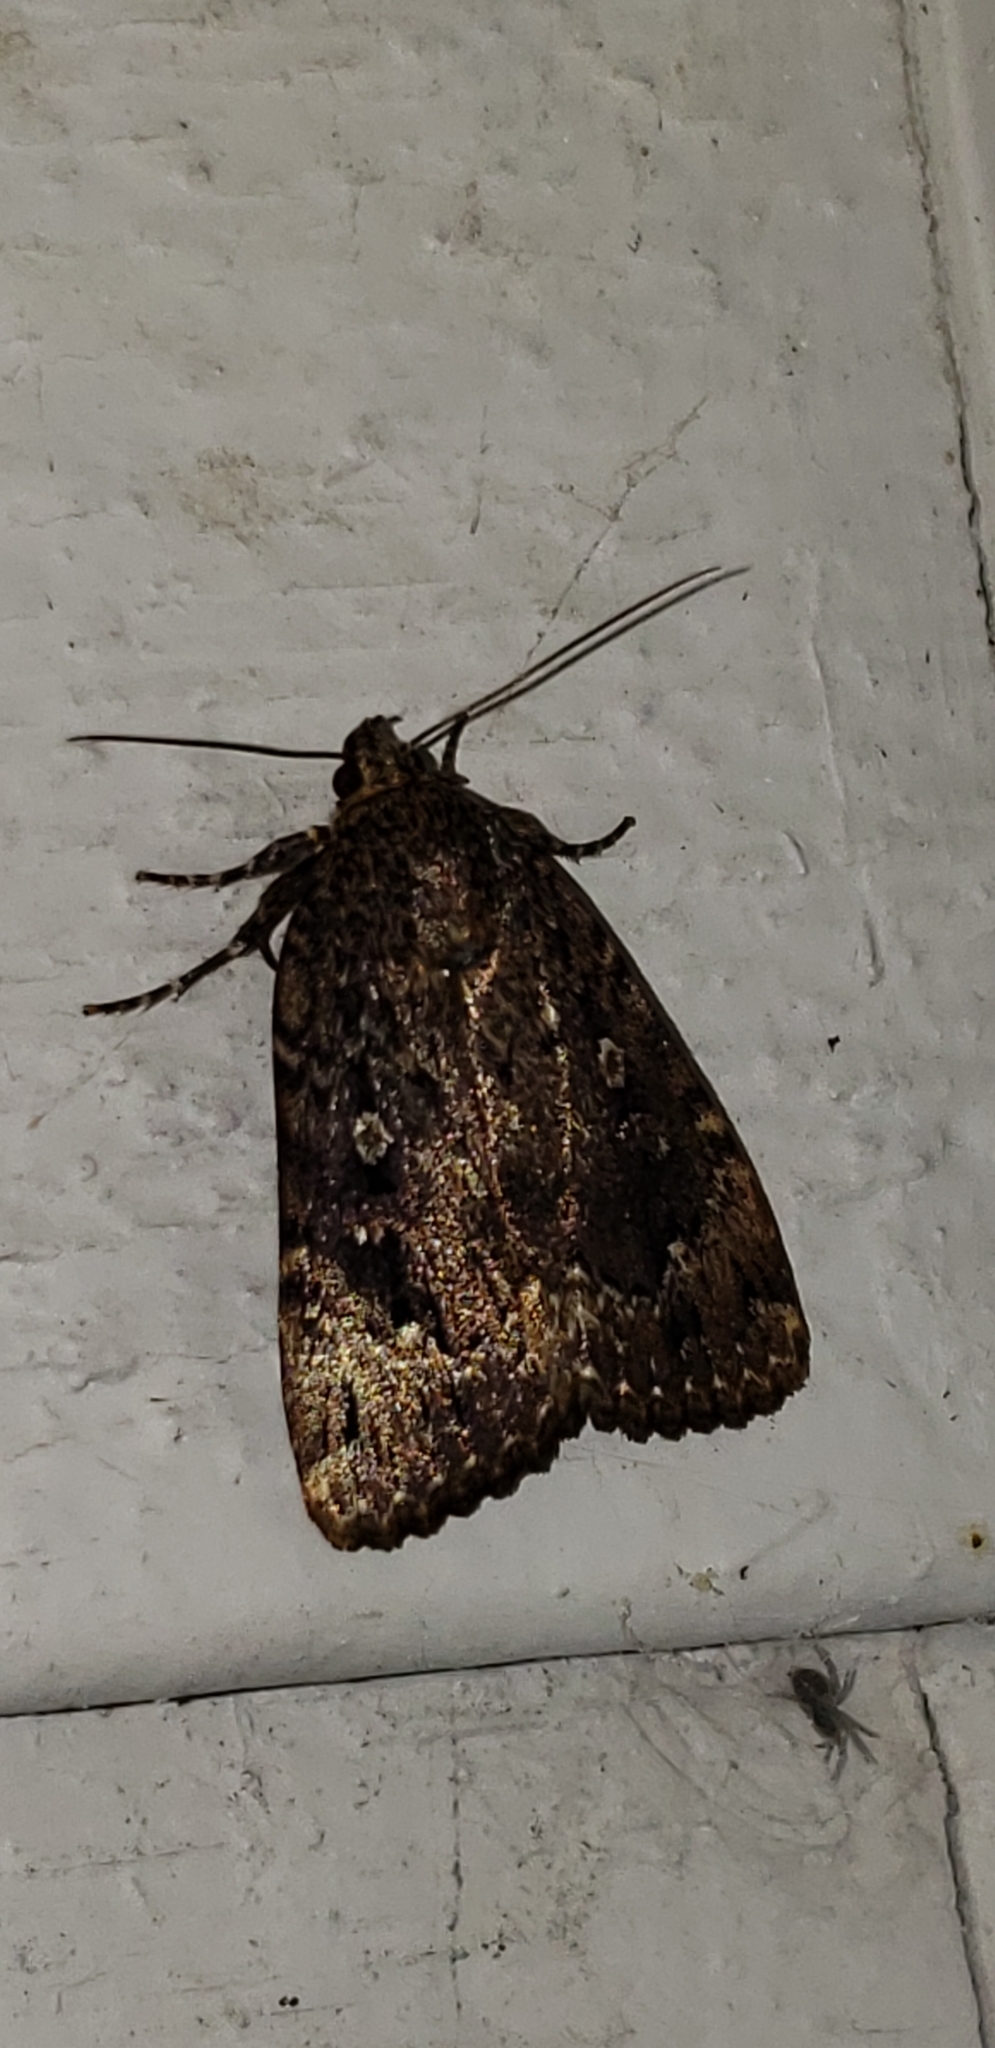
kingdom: Animalia
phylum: Arthropoda
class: Insecta
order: Lepidoptera
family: Noctuidae
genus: Amphipyra
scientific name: Amphipyra pyramidoides
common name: American copper underwing
